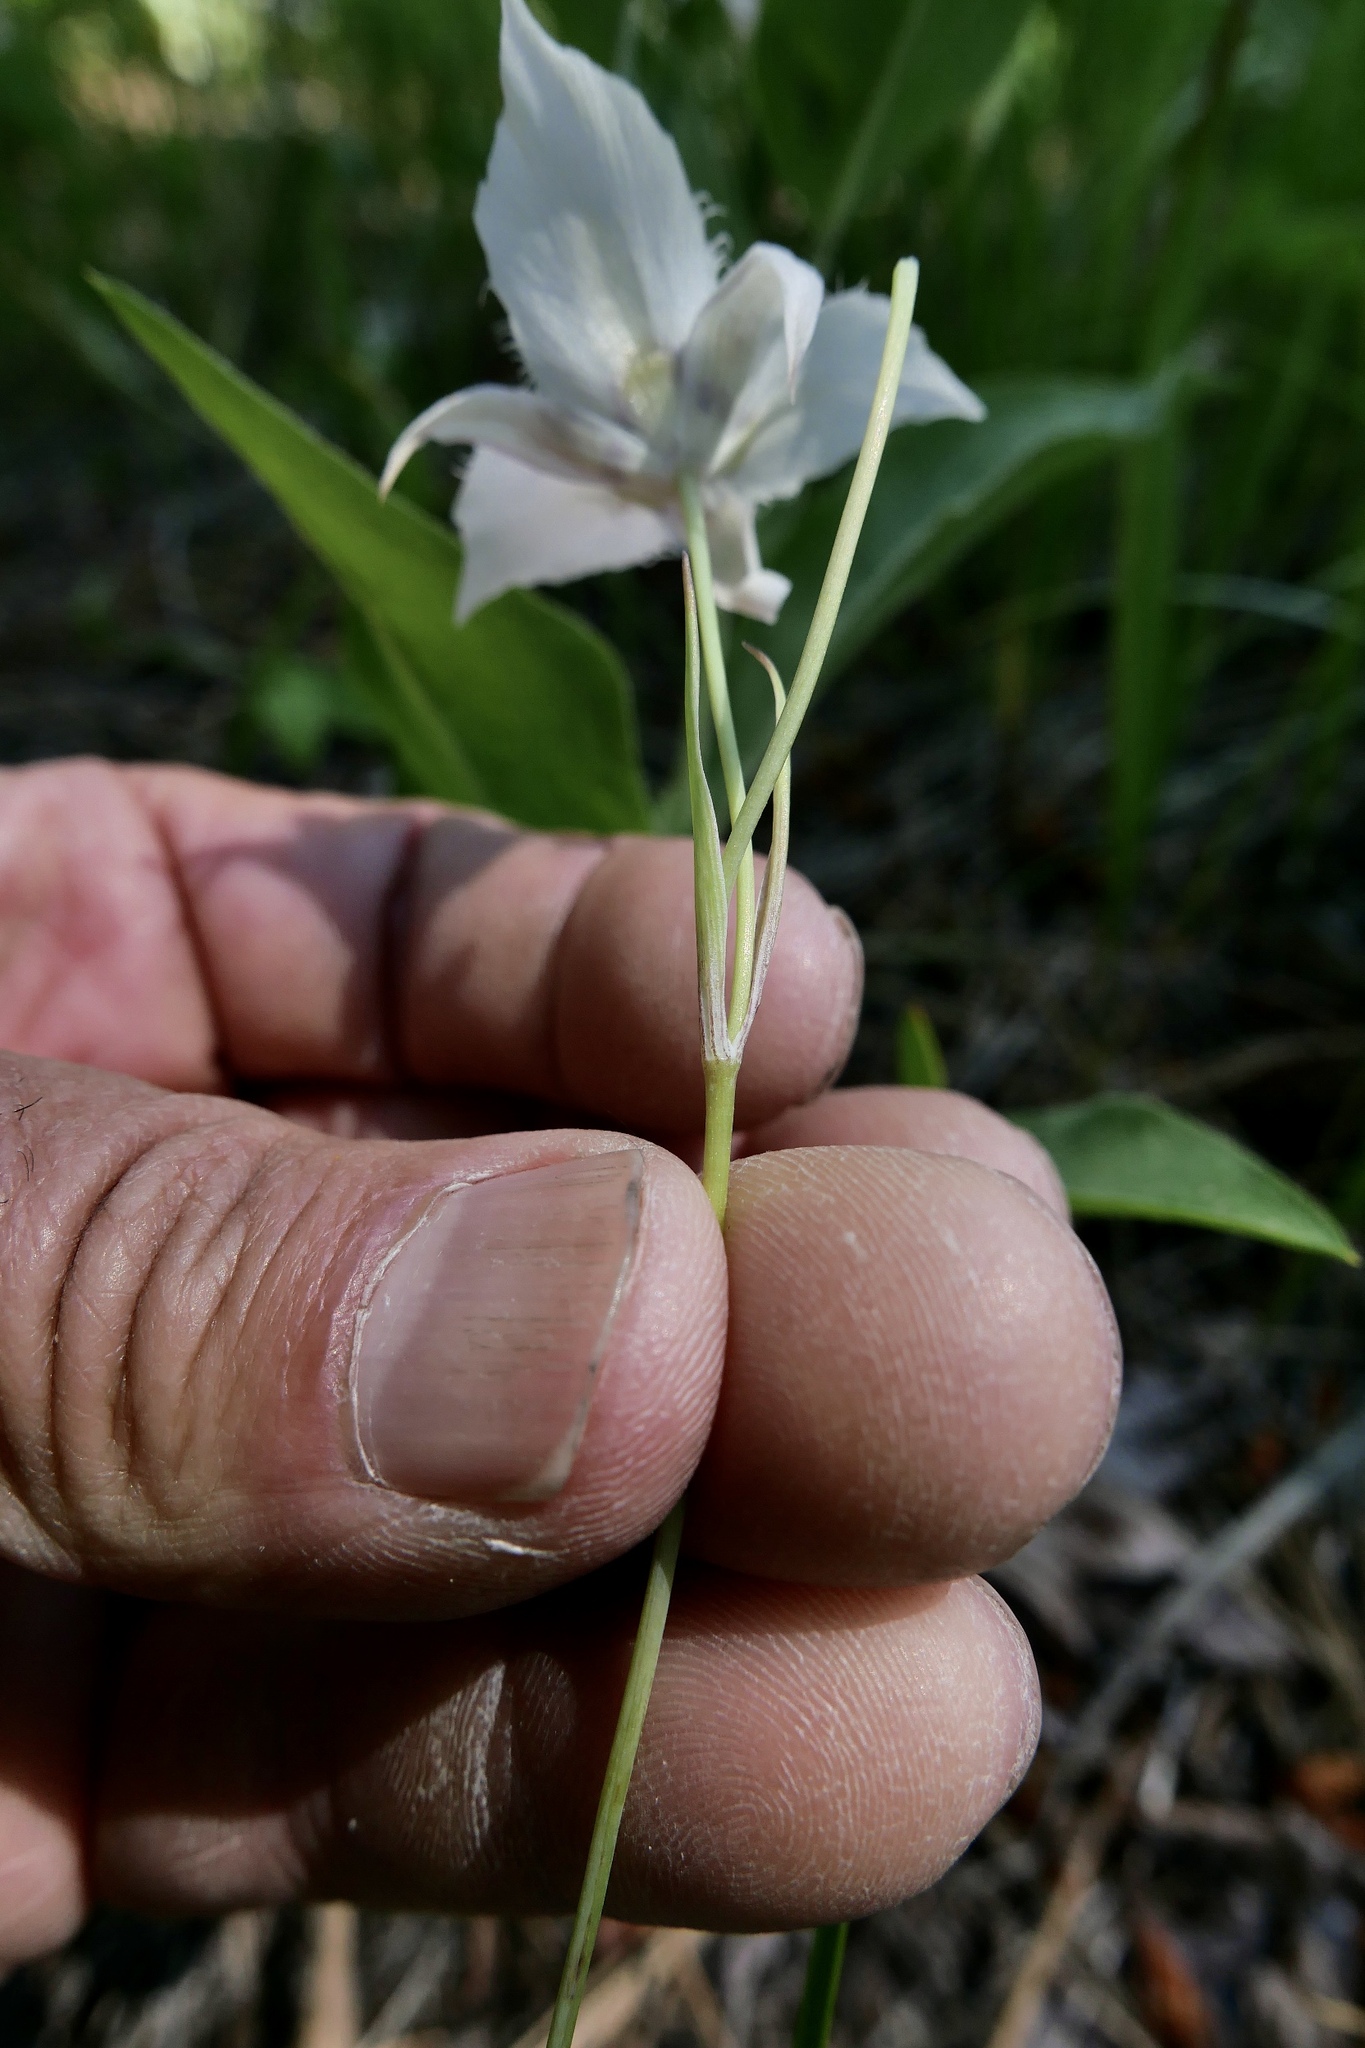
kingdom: Plantae
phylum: Tracheophyta
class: Liliopsida
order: Liliales
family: Liliaceae
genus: Calochortus
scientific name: Calochortus lyallii
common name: Lyall's mariposa lily
